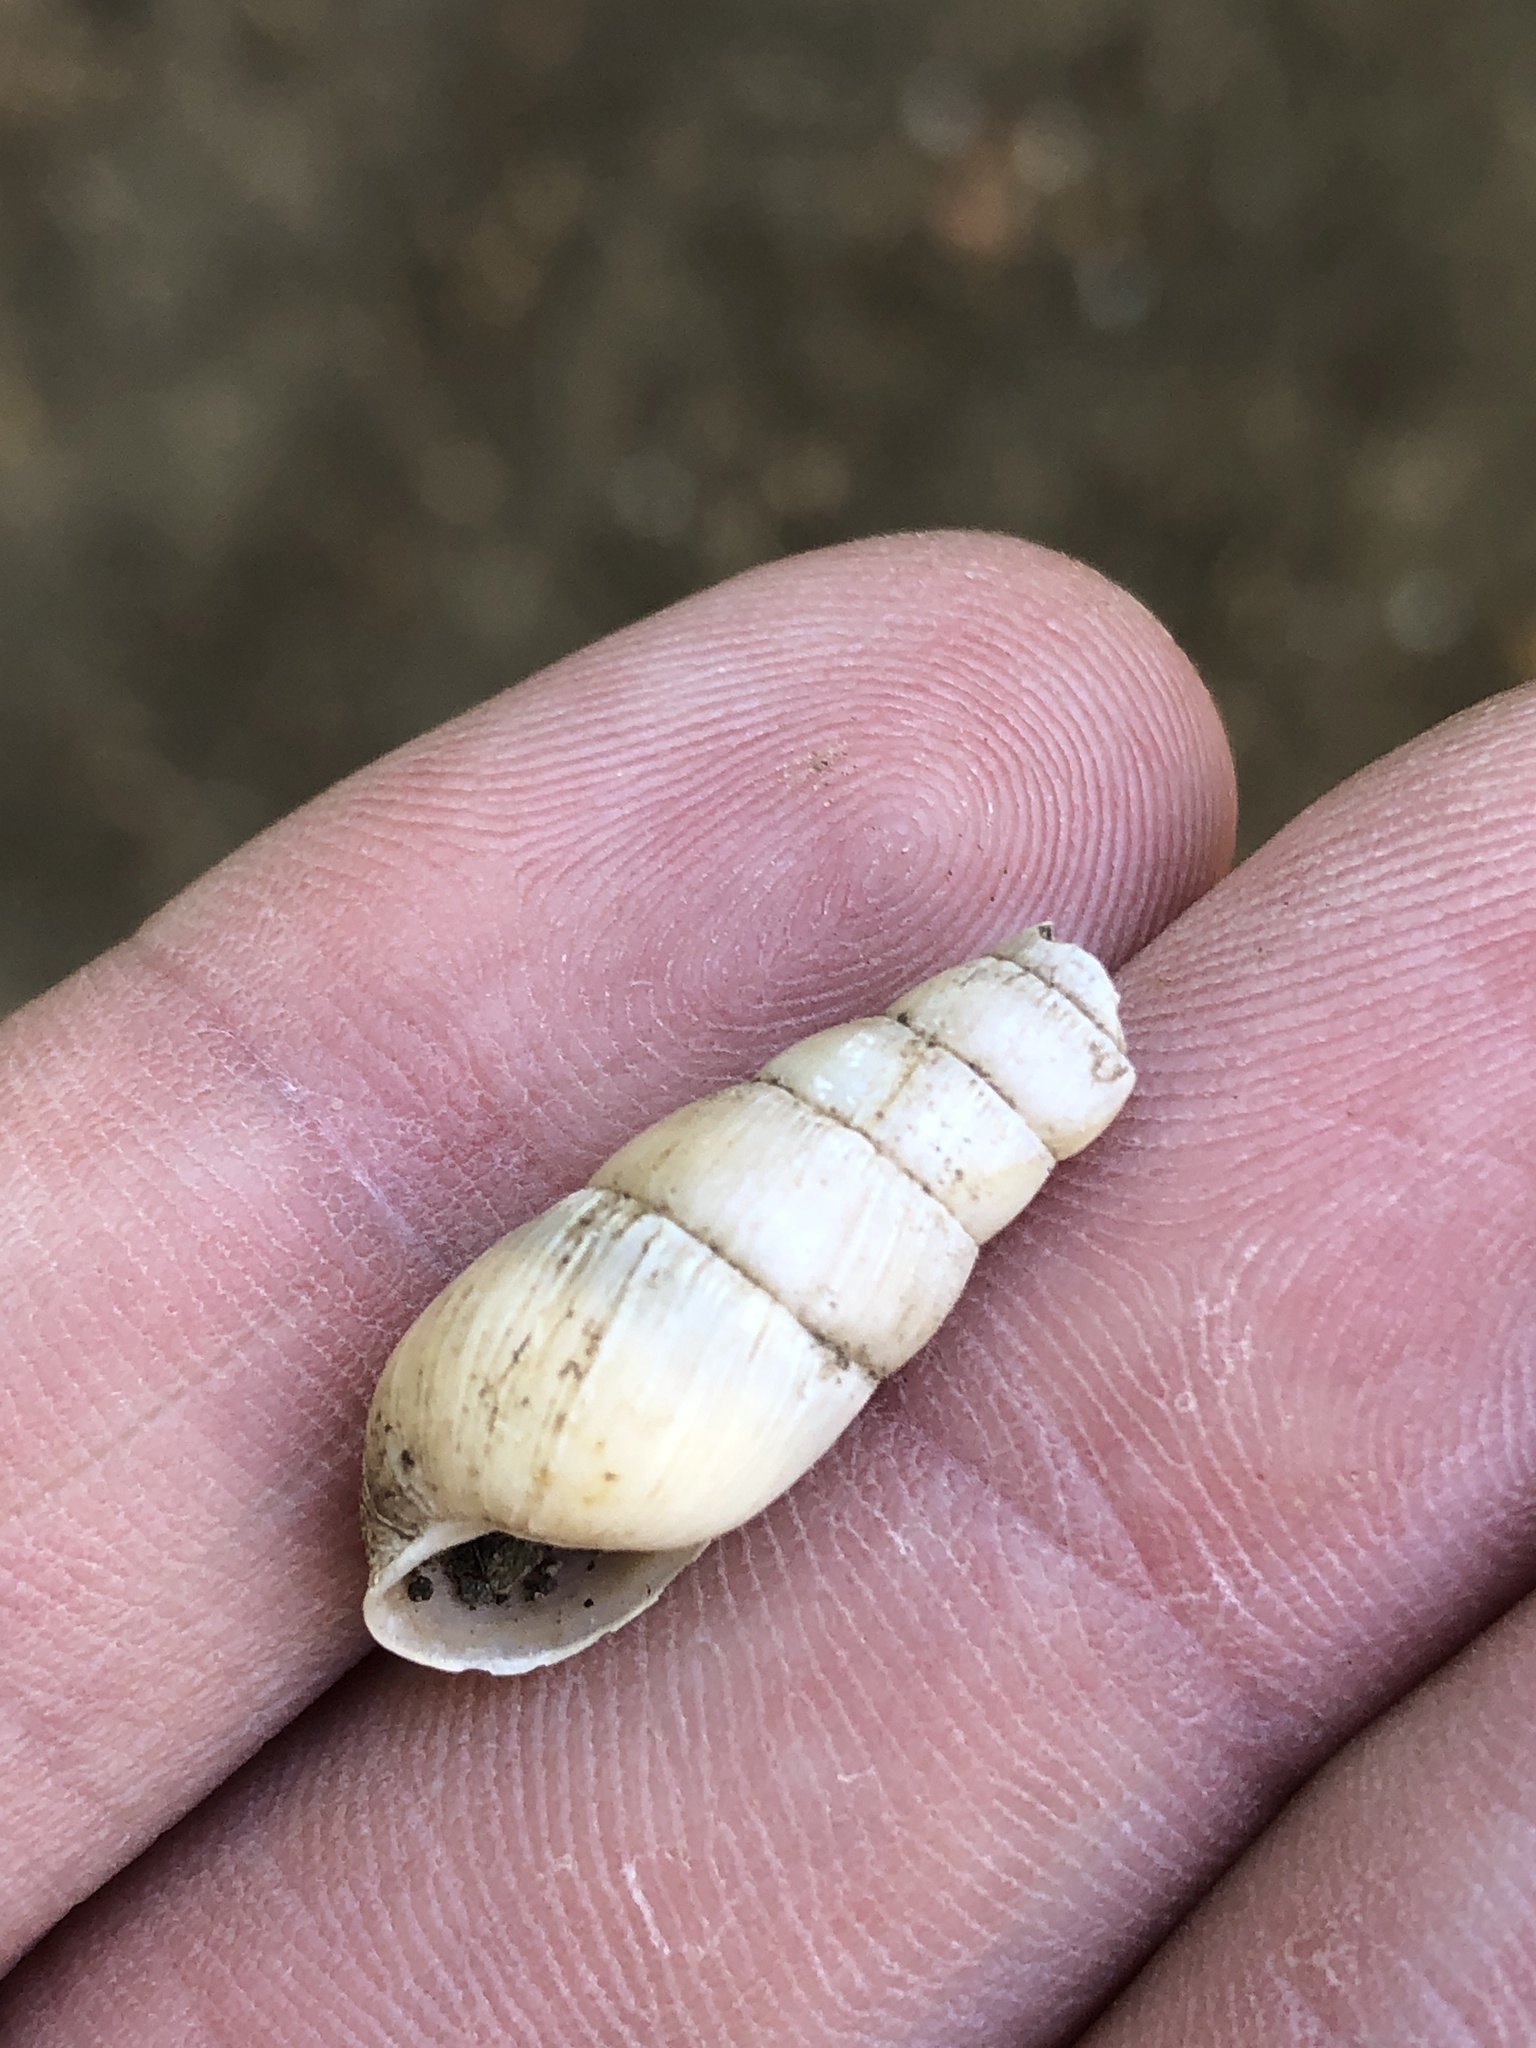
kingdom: Animalia
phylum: Mollusca
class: Gastropoda
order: Stylommatophora
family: Achatinidae
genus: Rumina
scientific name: Rumina decollata
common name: Decollate snail
